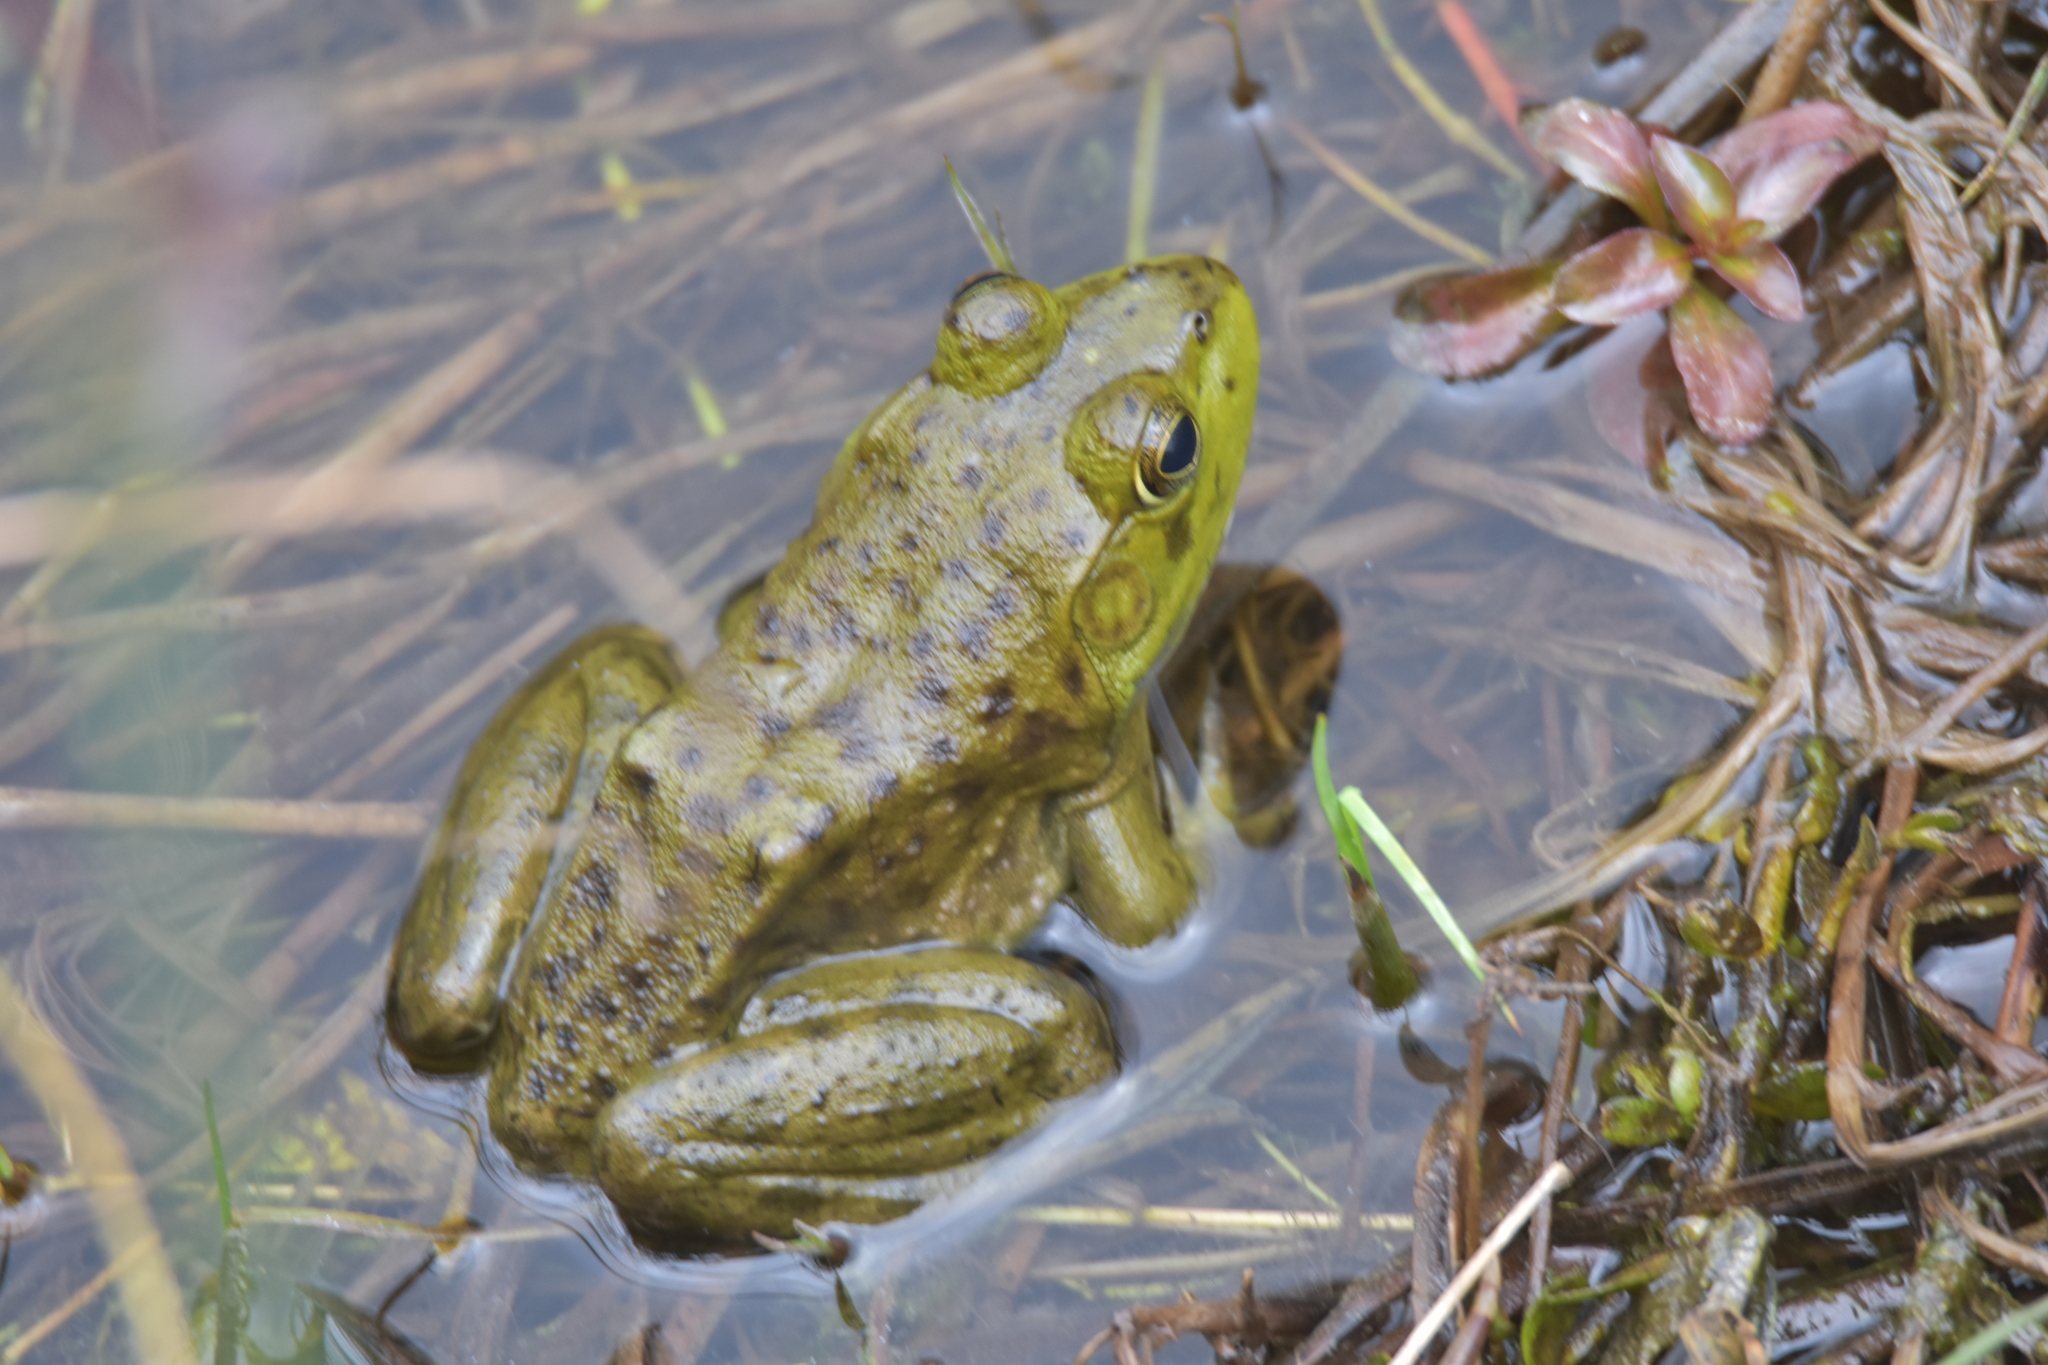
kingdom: Animalia
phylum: Chordata
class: Amphibia
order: Anura
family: Ranidae
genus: Lithobates
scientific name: Lithobates catesbeianus
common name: American bullfrog
